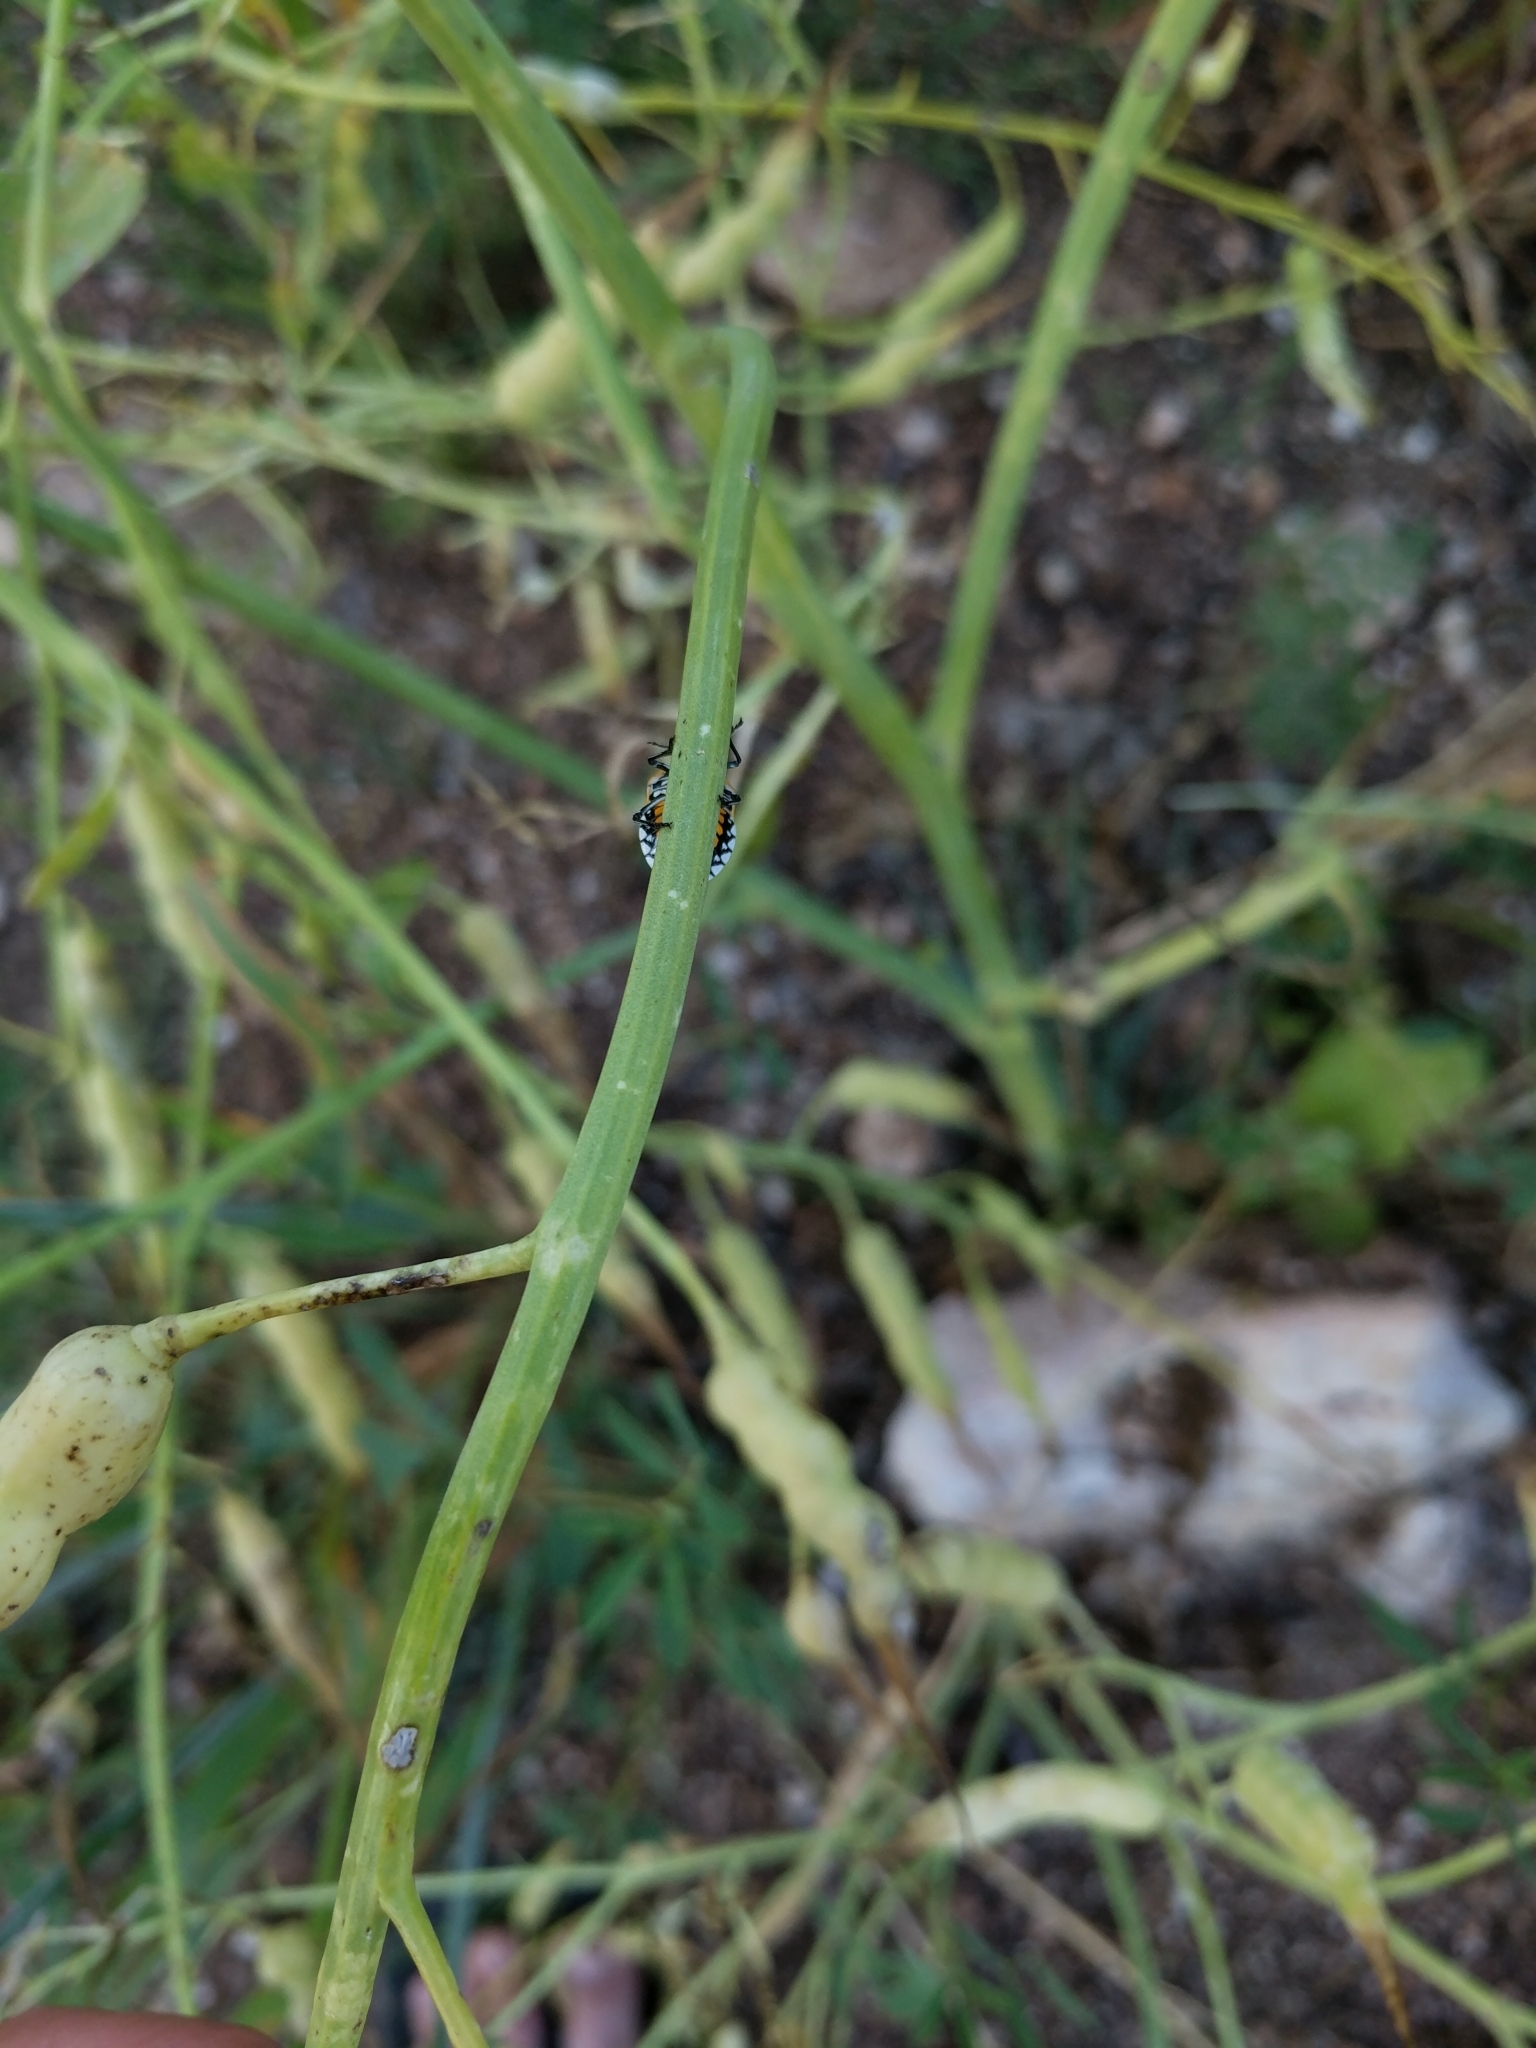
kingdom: Animalia
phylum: Arthropoda
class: Insecta
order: Hemiptera
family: Pentatomidae
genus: Murgantia
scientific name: Murgantia histrionica
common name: Harlequin bug
